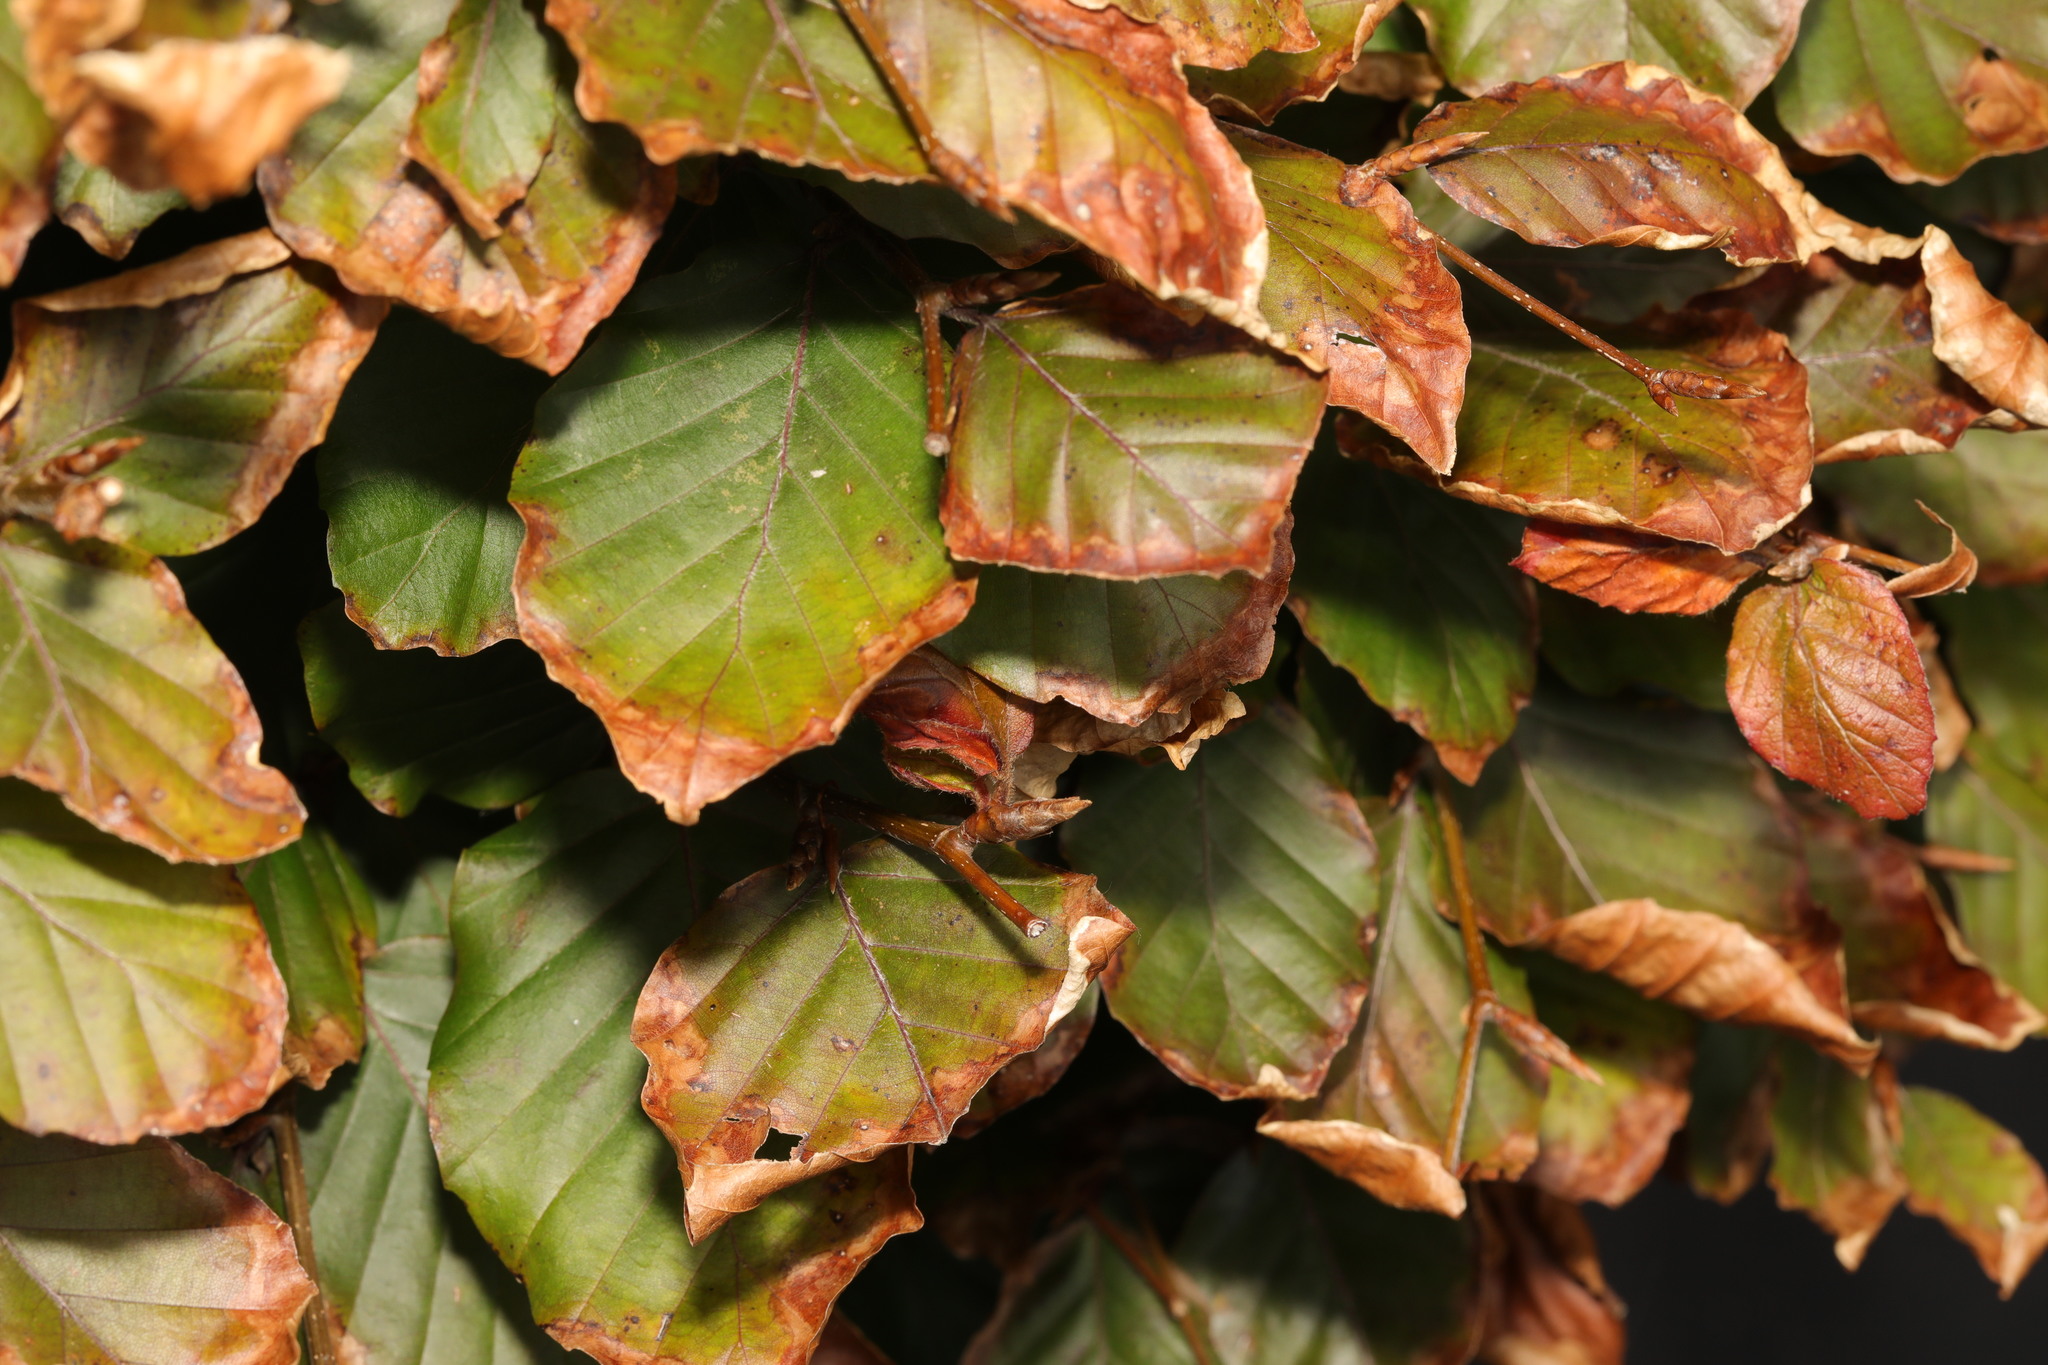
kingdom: Plantae
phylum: Tracheophyta
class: Magnoliopsida
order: Fagales
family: Fagaceae
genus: Fagus
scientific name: Fagus sylvatica
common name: Beech
